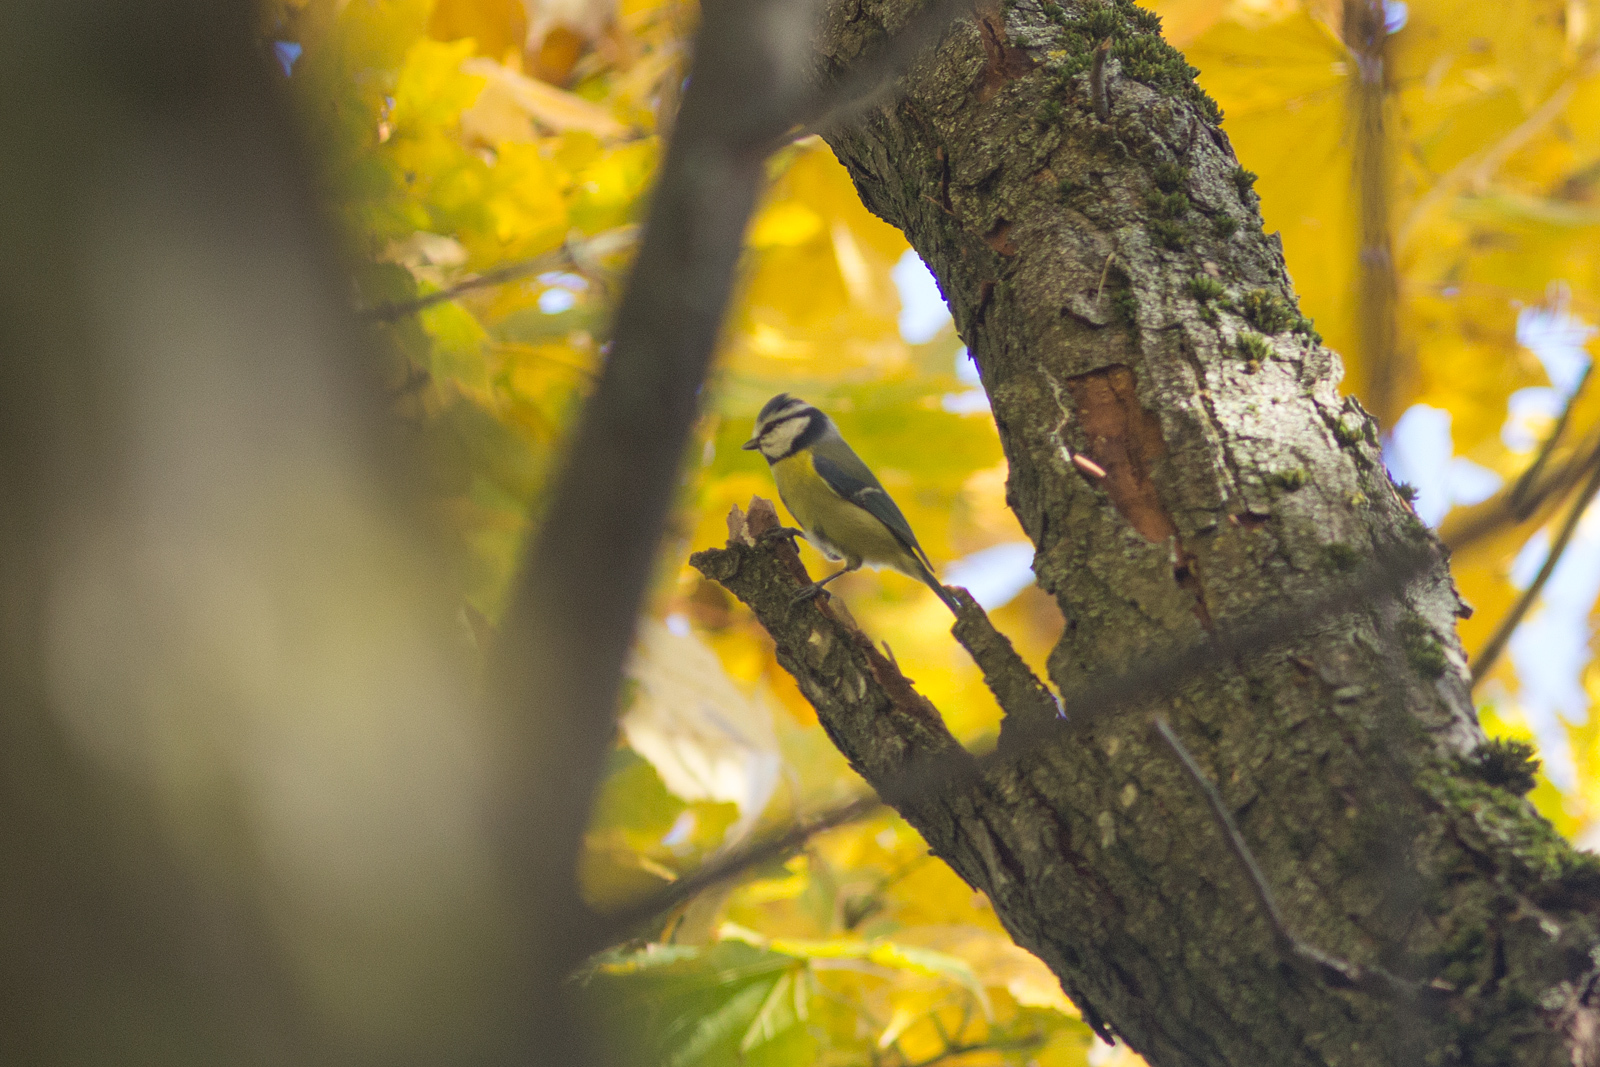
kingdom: Animalia
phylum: Chordata
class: Aves
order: Passeriformes
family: Paridae
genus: Cyanistes
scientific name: Cyanistes caeruleus
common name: Eurasian blue tit
